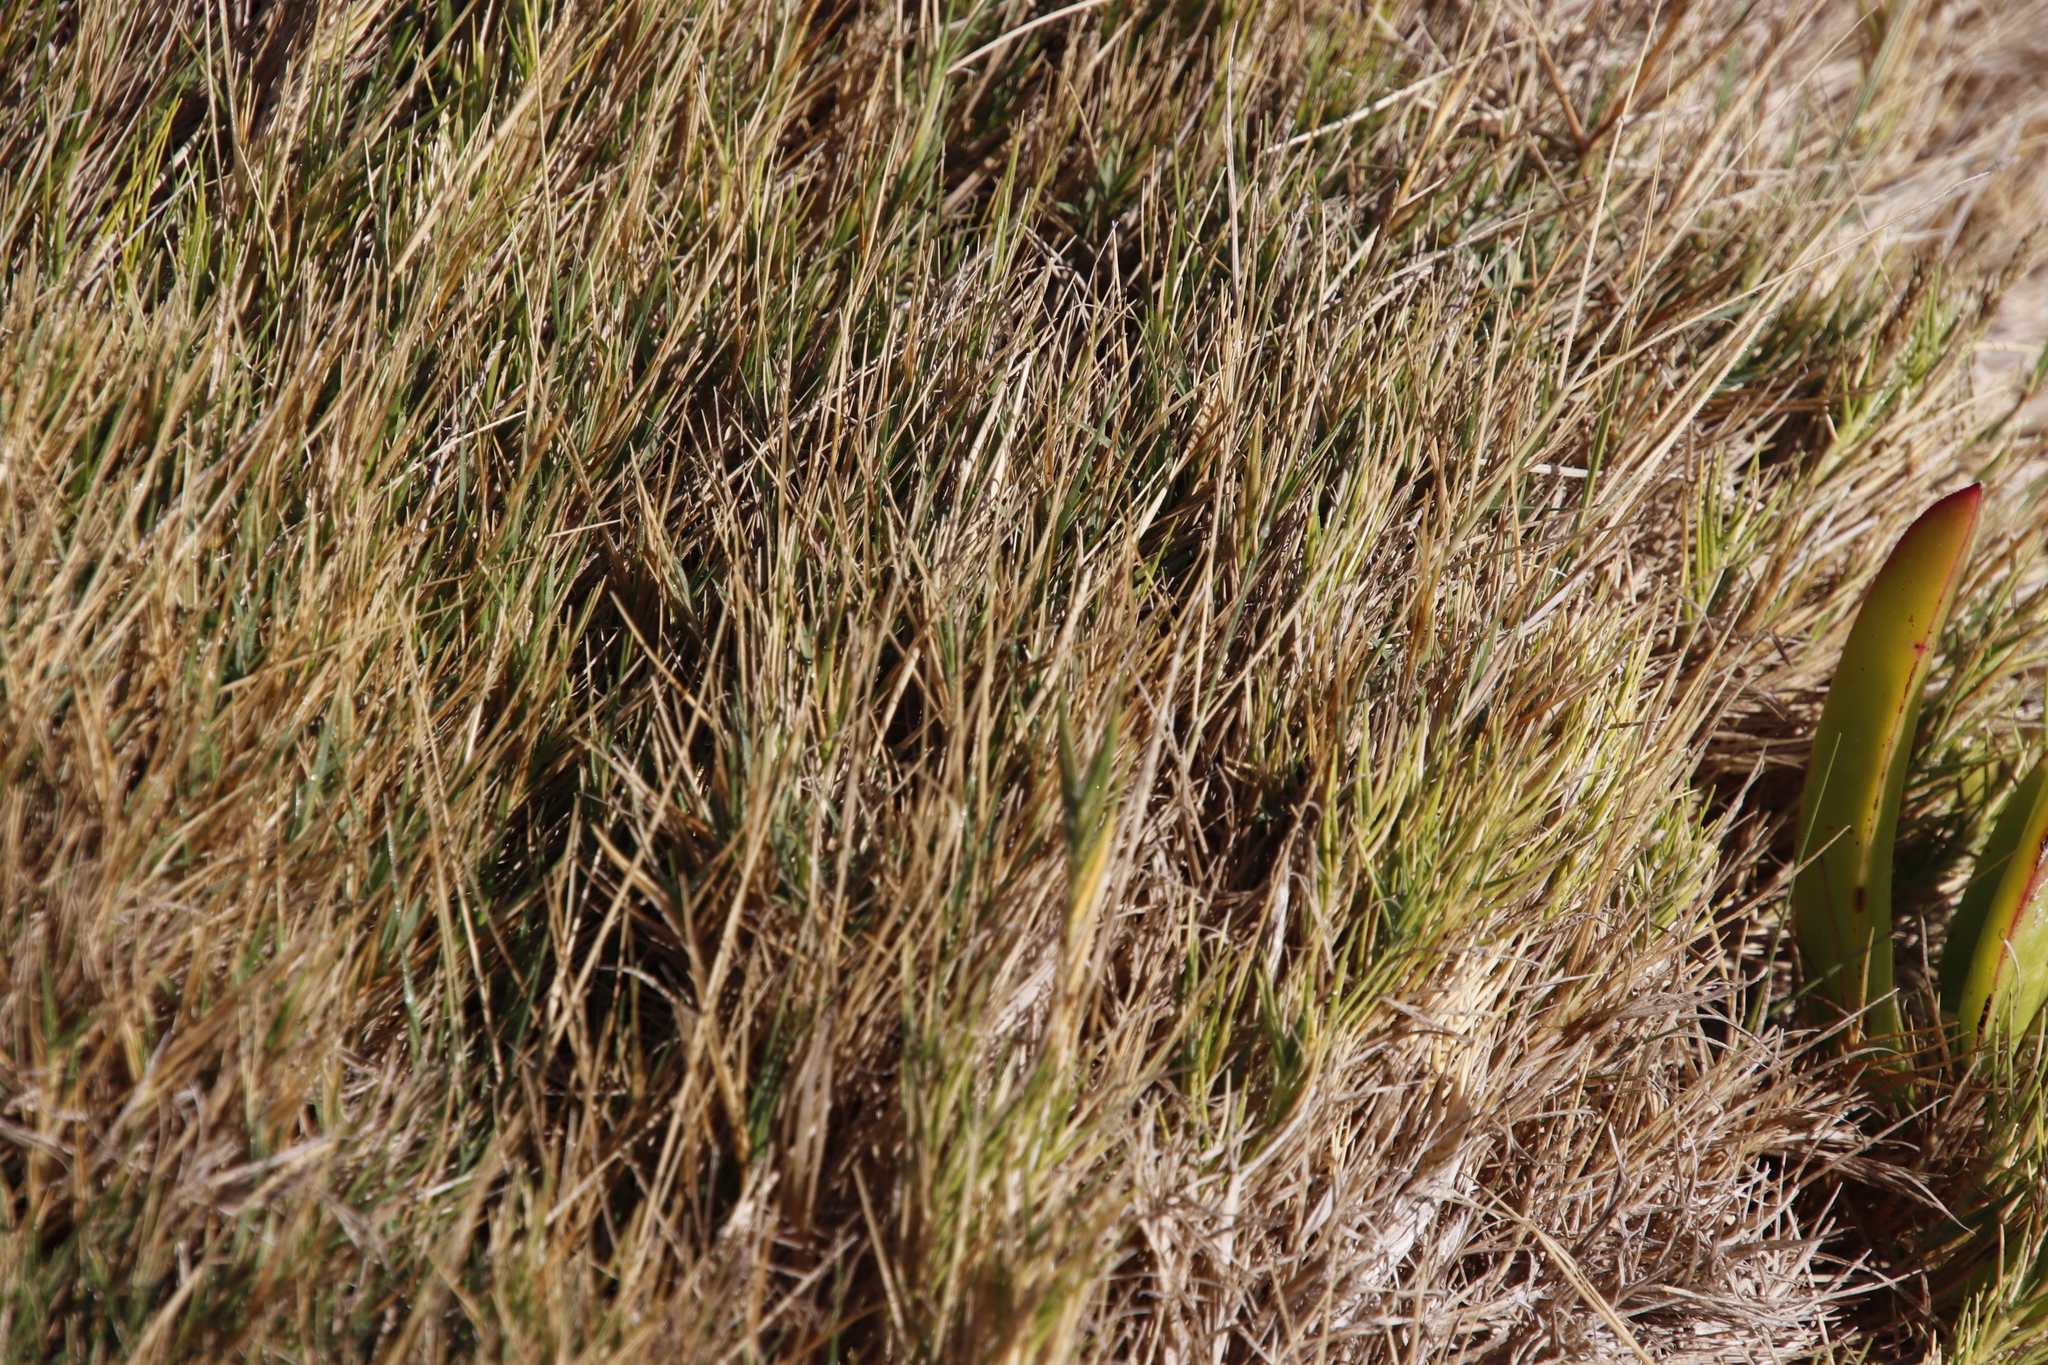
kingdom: Plantae
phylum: Tracheophyta
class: Liliopsida
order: Poales
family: Poaceae
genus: Sporobolus
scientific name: Sporobolus virginicus
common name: Beach dropseed
